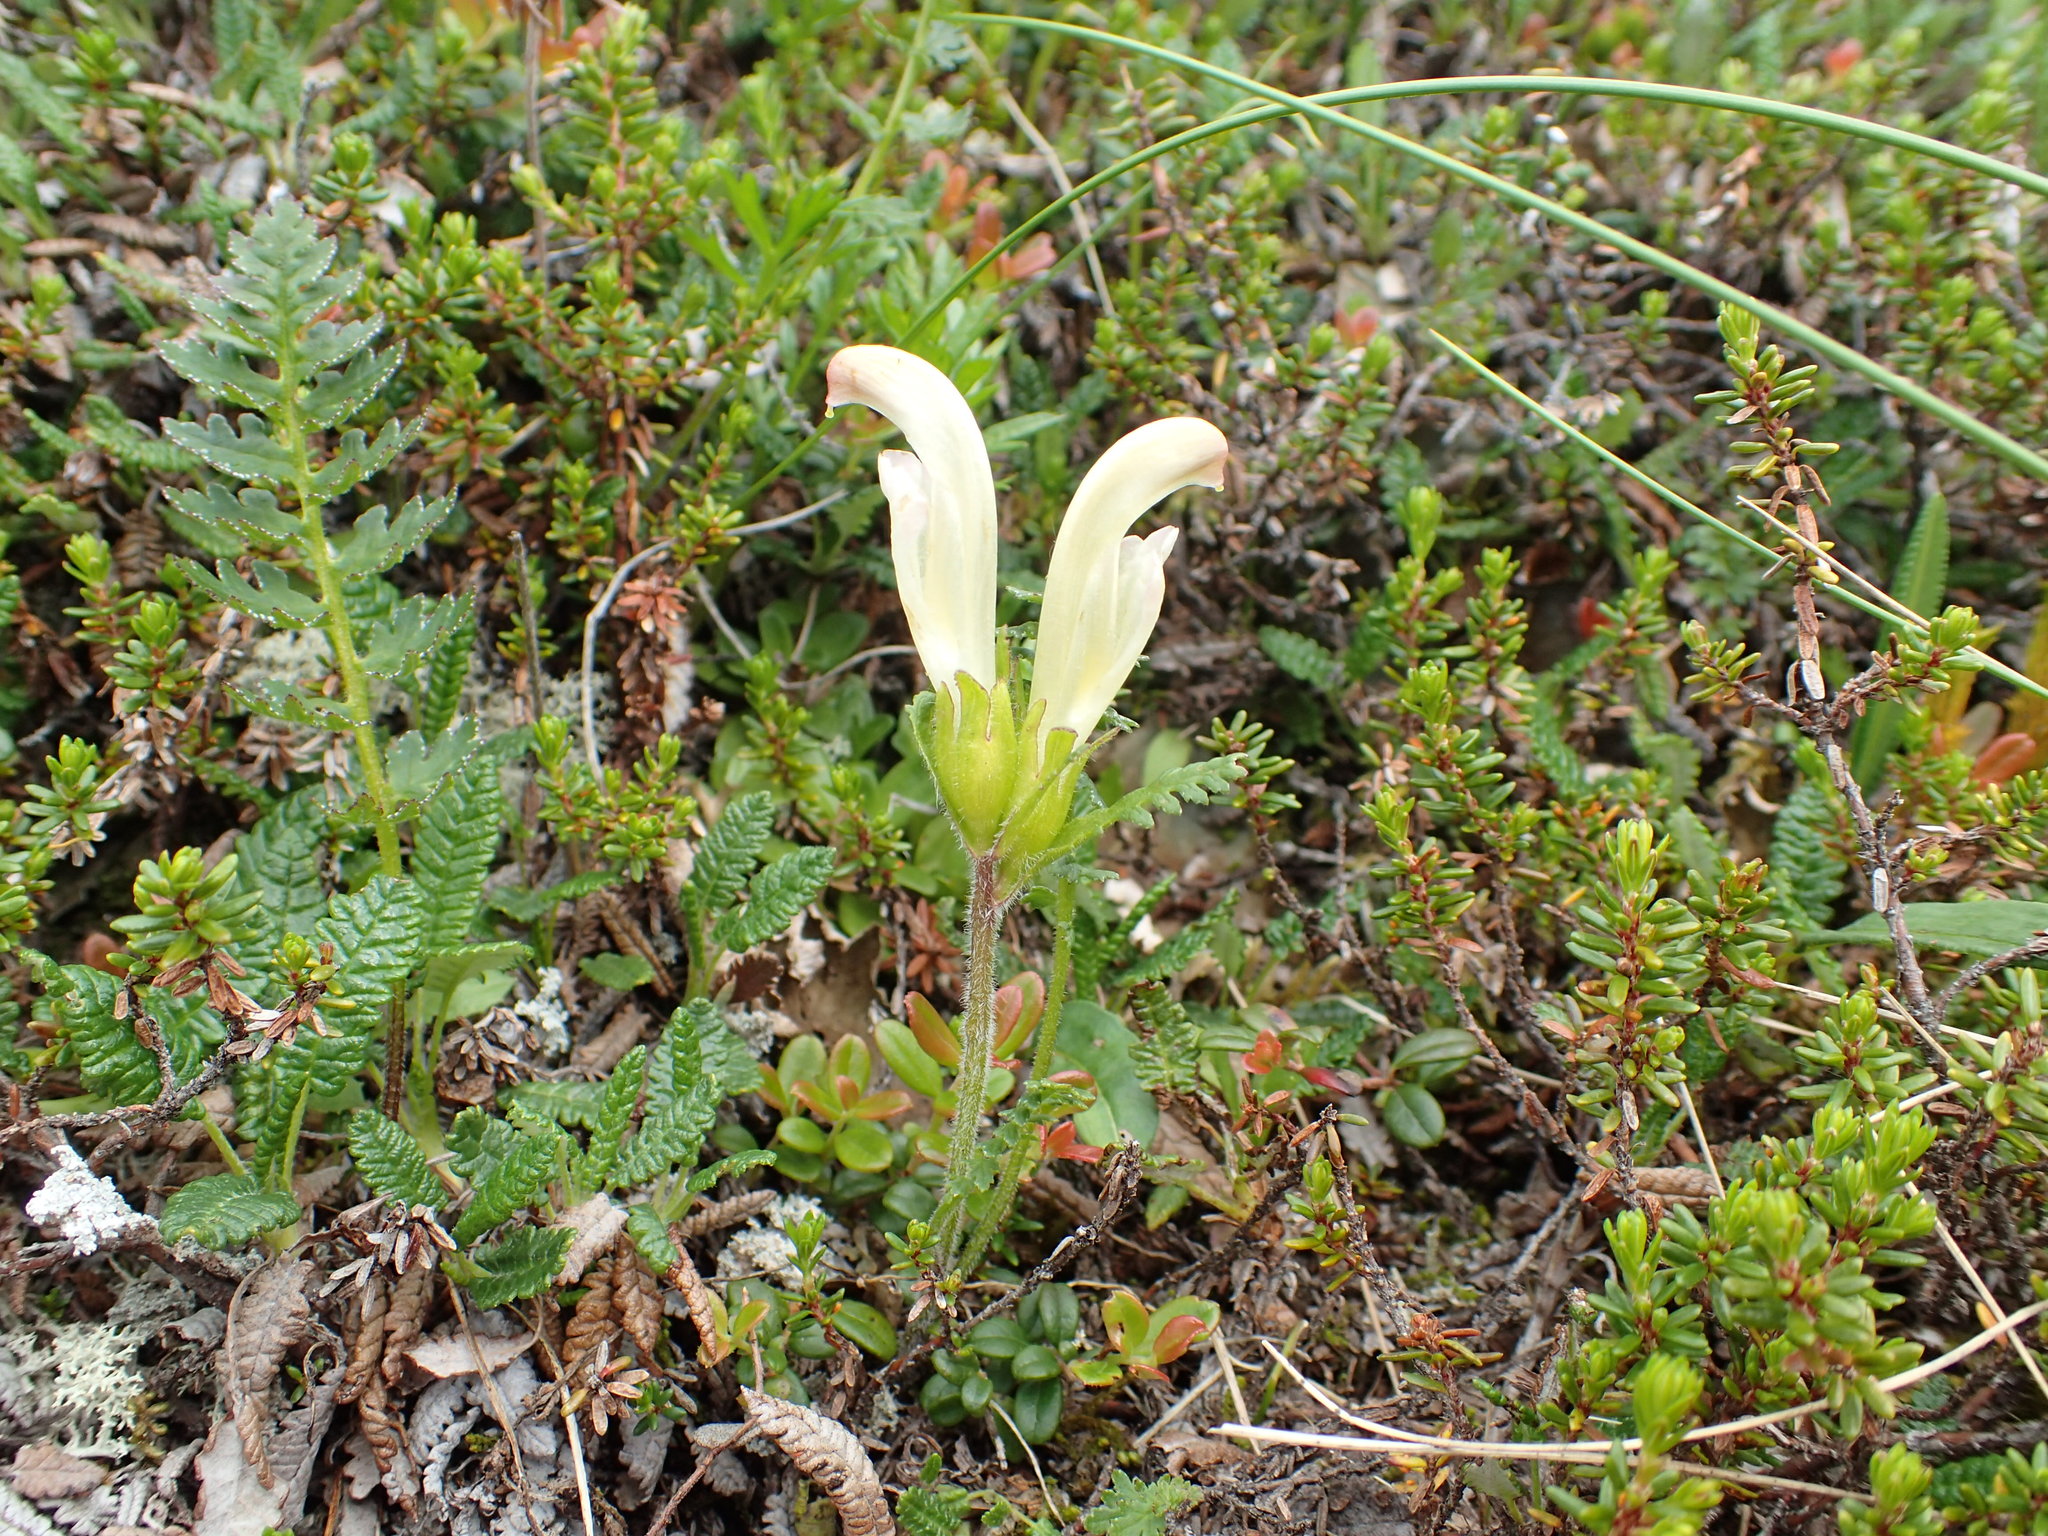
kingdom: Plantae
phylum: Tracheophyta
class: Magnoliopsida
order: Lamiales
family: Orobanchaceae
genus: Pedicularis
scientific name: Pedicularis capitata
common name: Capitate lousewort
